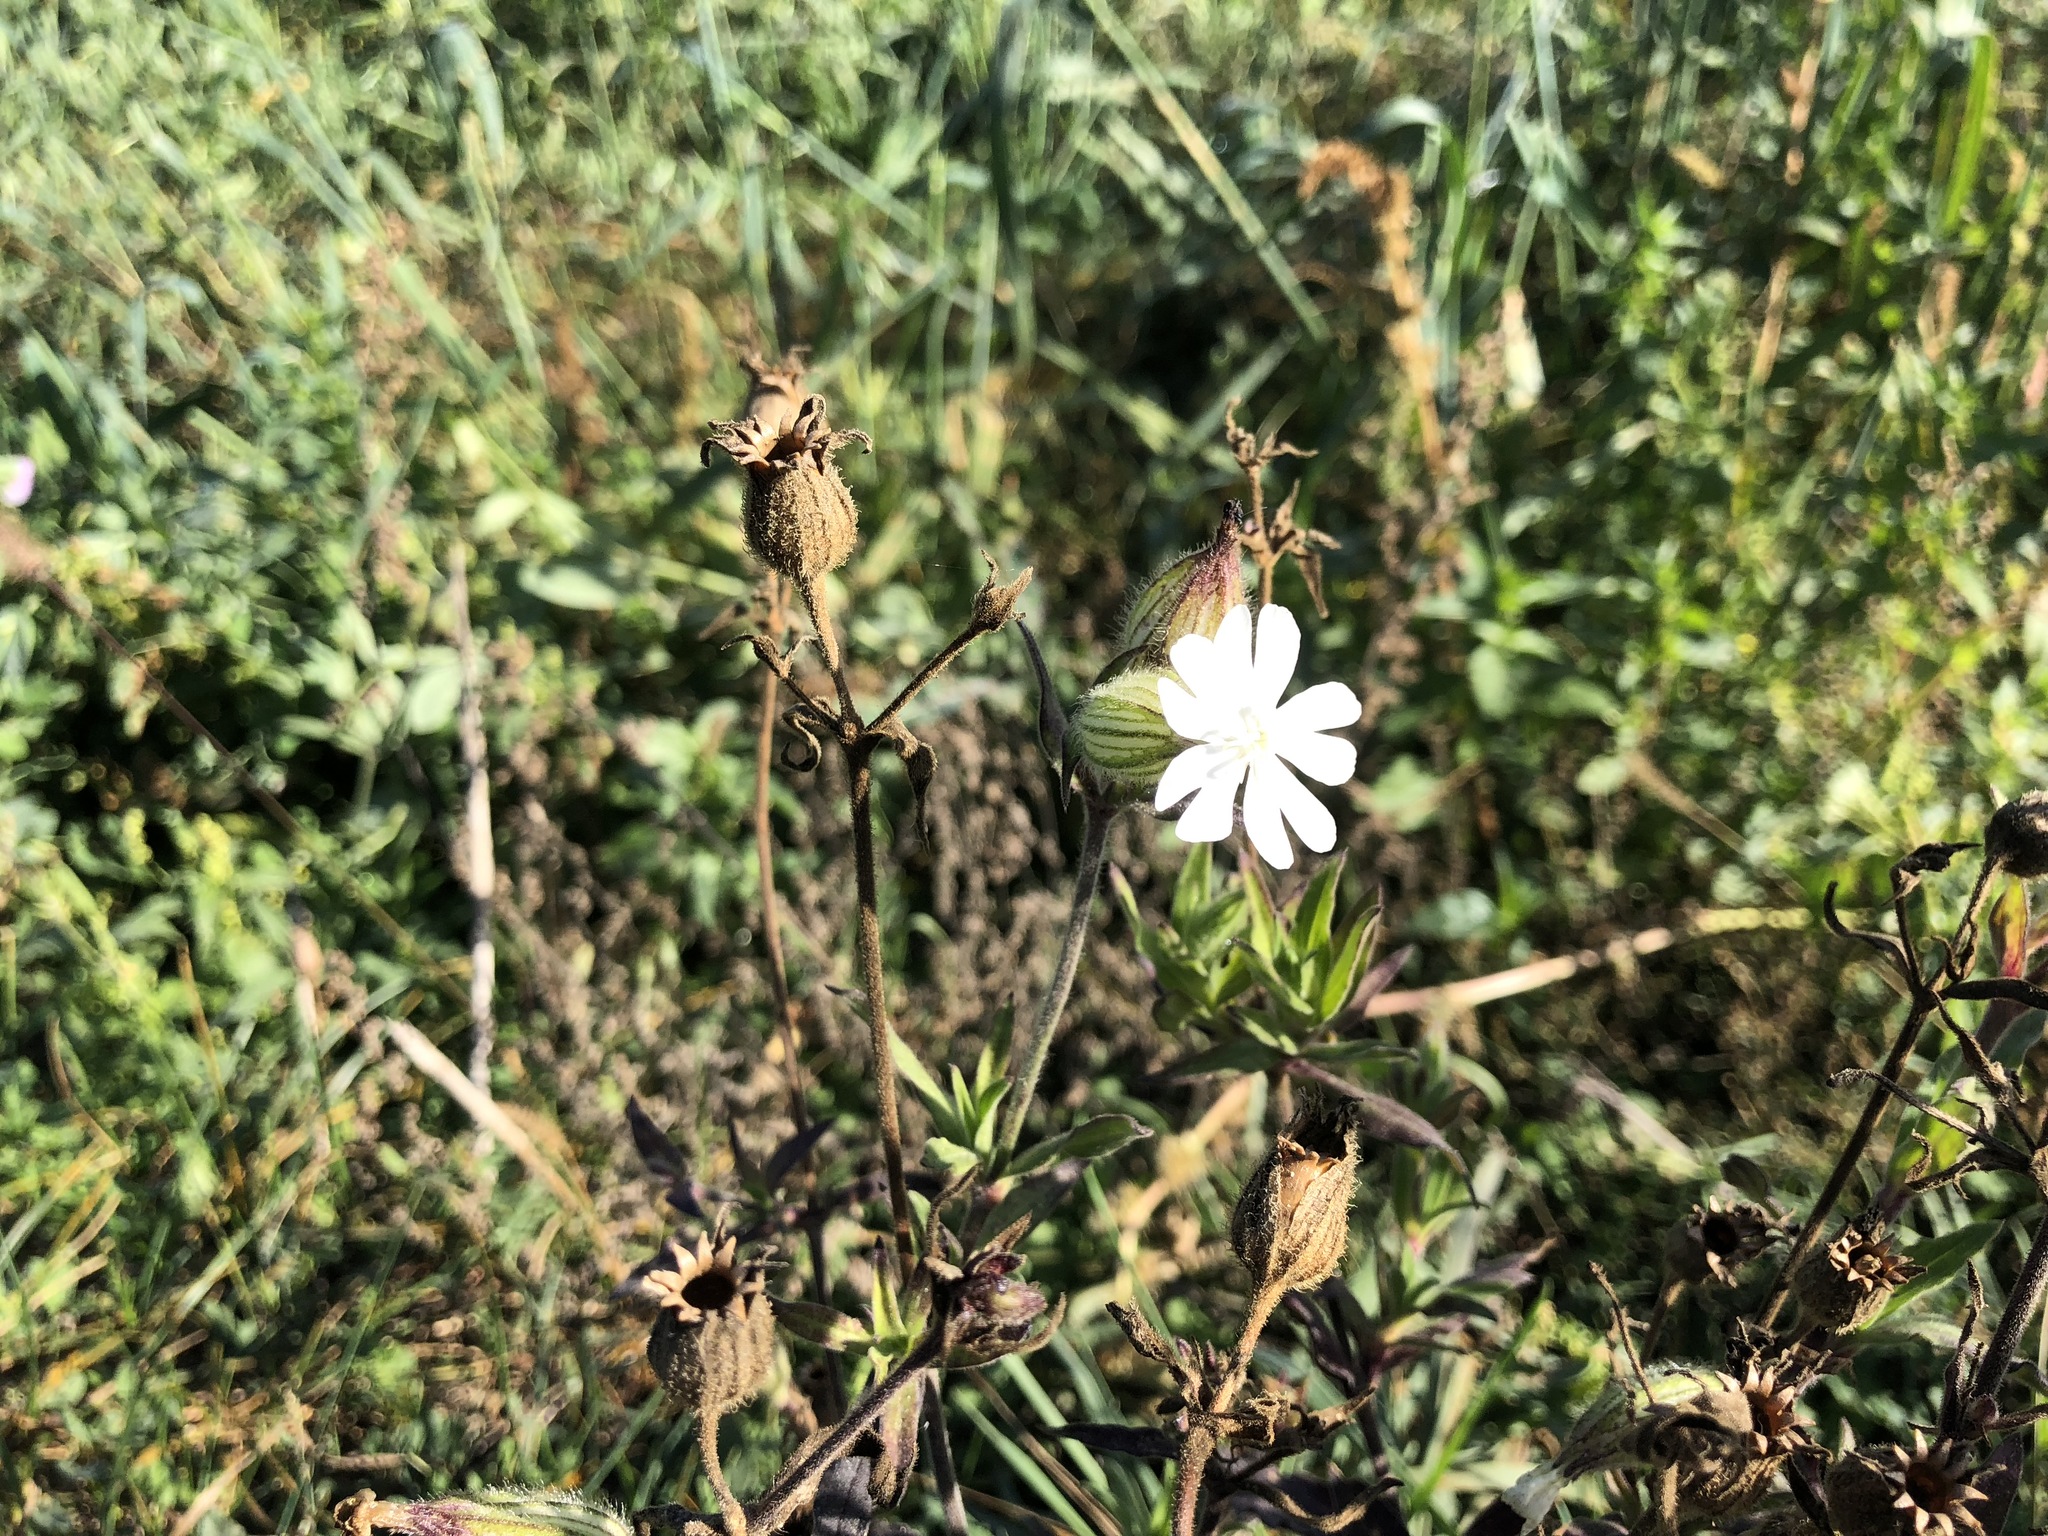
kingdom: Plantae
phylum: Tracheophyta
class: Magnoliopsida
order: Caryophyllales
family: Caryophyllaceae
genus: Silene
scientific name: Silene latifolia
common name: White campion
